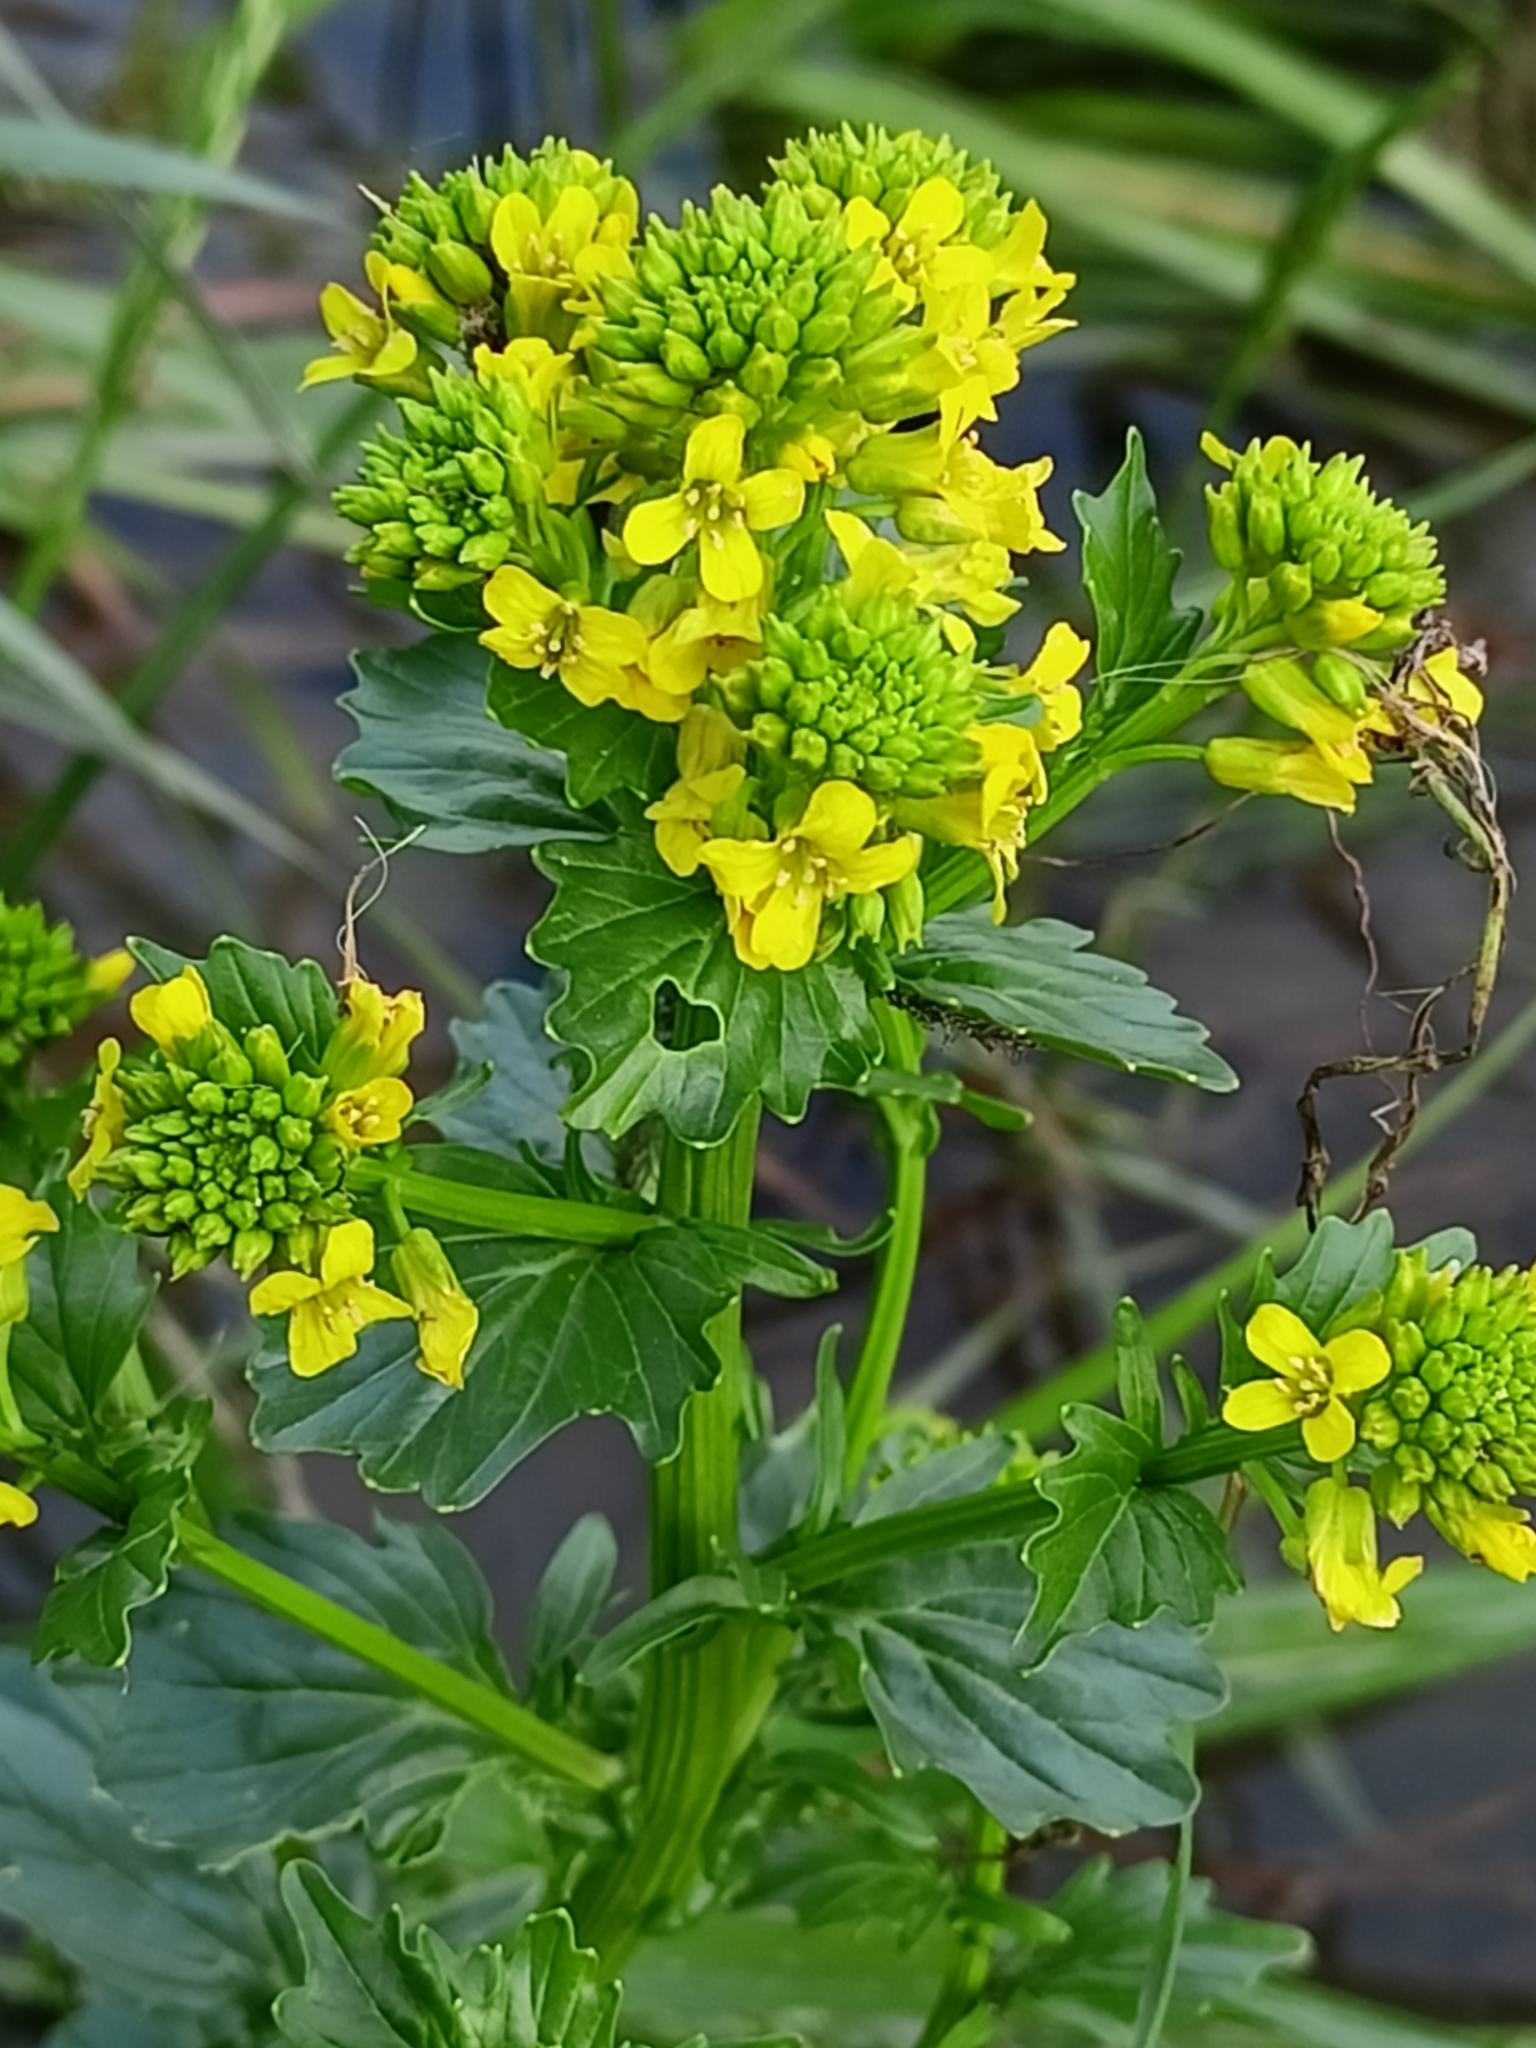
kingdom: Plantae
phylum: Tracheophyta
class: Magnoliopsida
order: Brassicales
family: Brassicaceae
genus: Barbarea
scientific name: Barbarea vulgaris
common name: Cressy-greens
